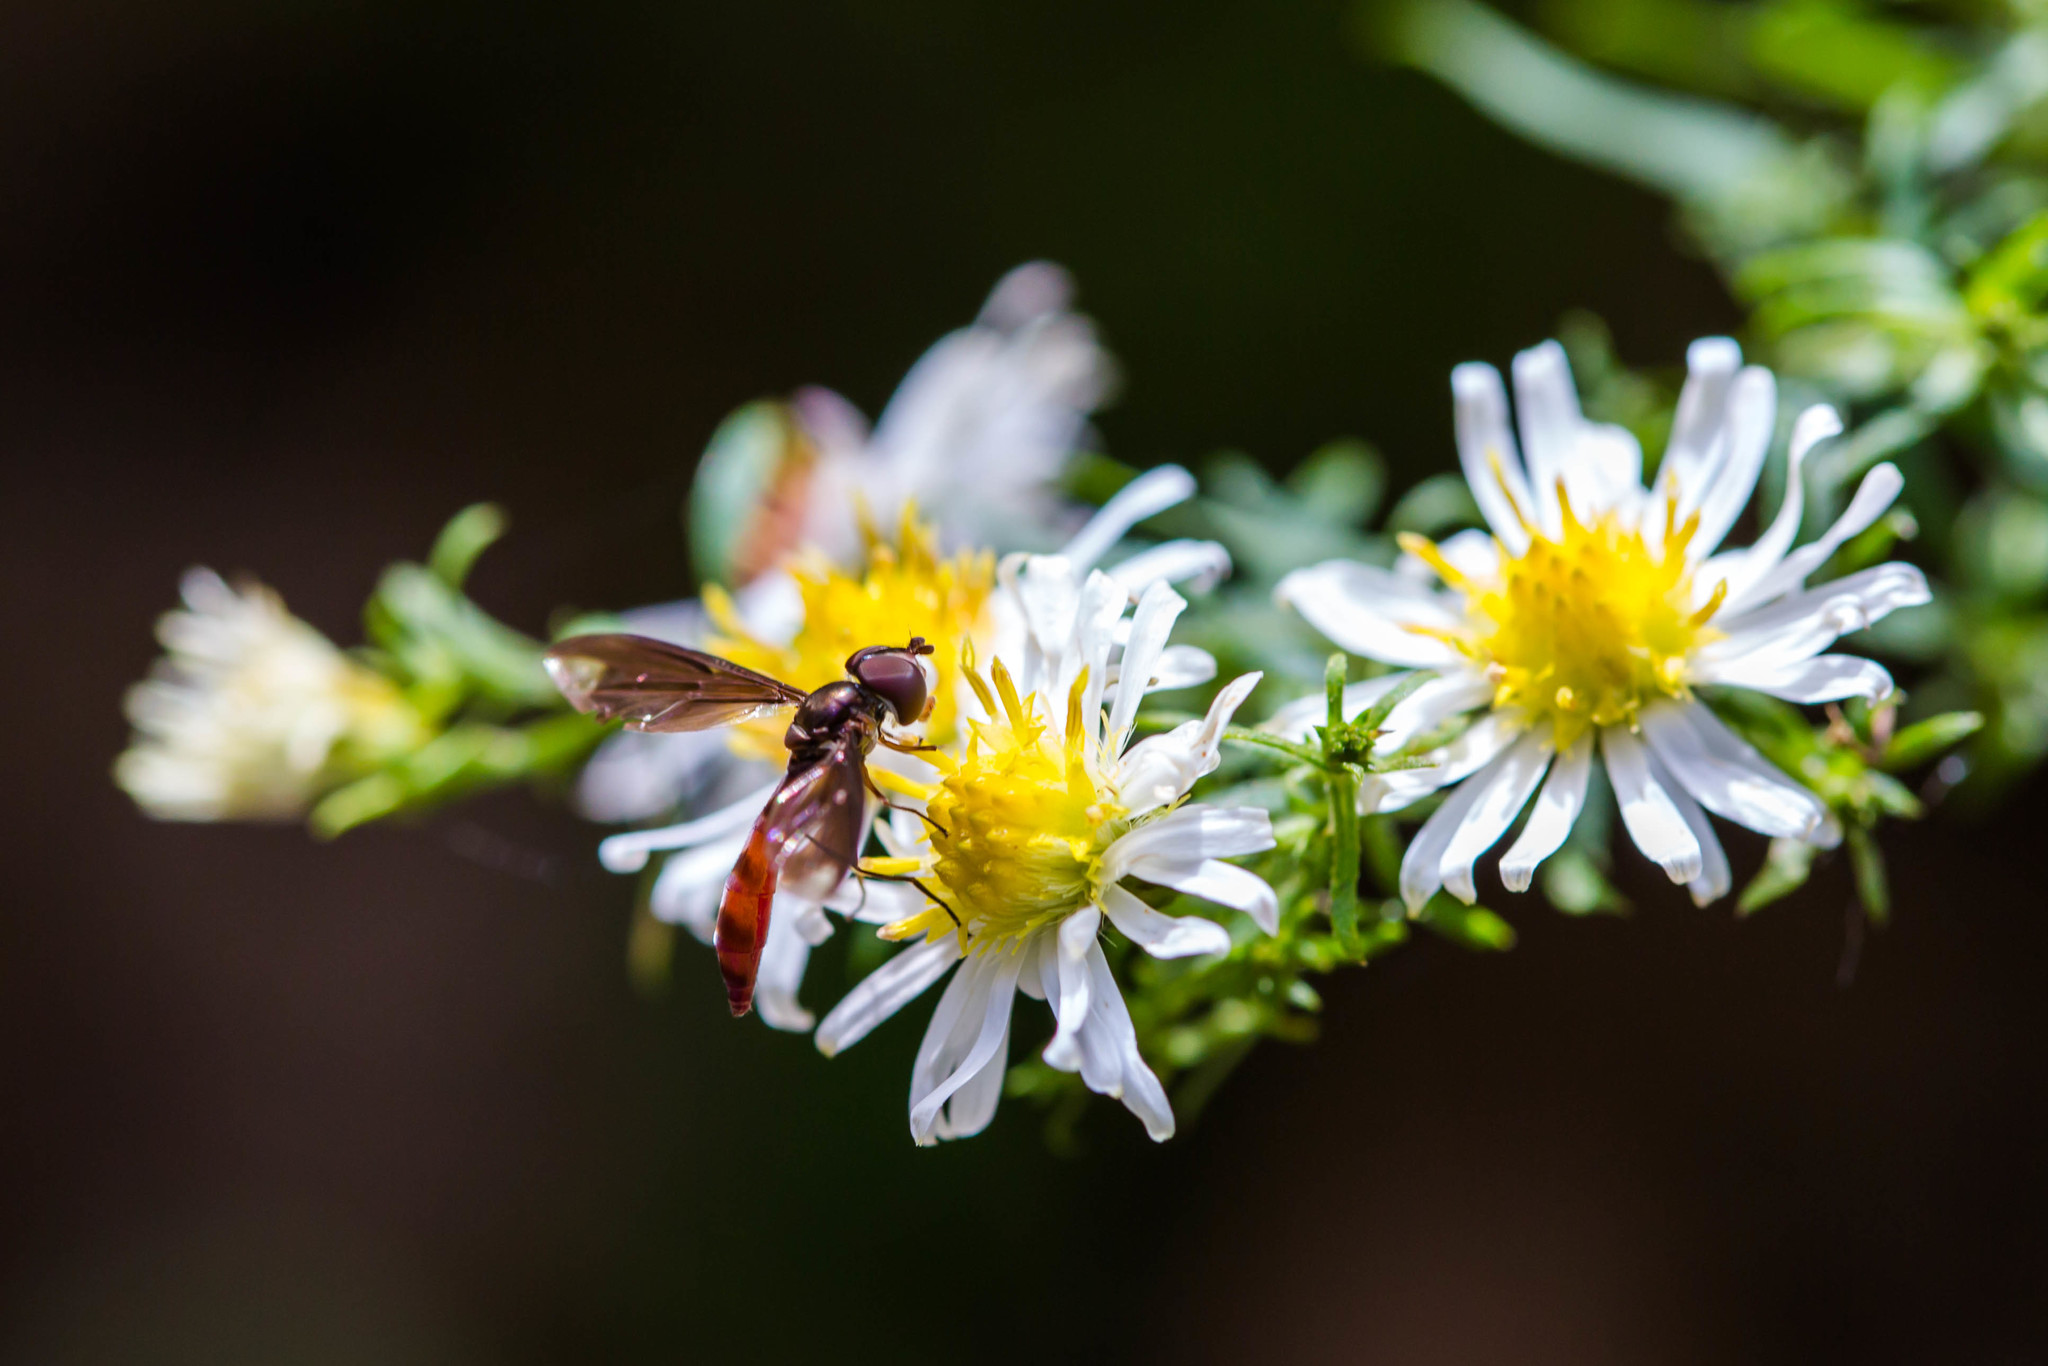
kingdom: Animalia
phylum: Arthropoda
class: Insecta
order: Diptera
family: Syrphidae
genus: Ocyptamus
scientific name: Ocyptamus fuscipennis
